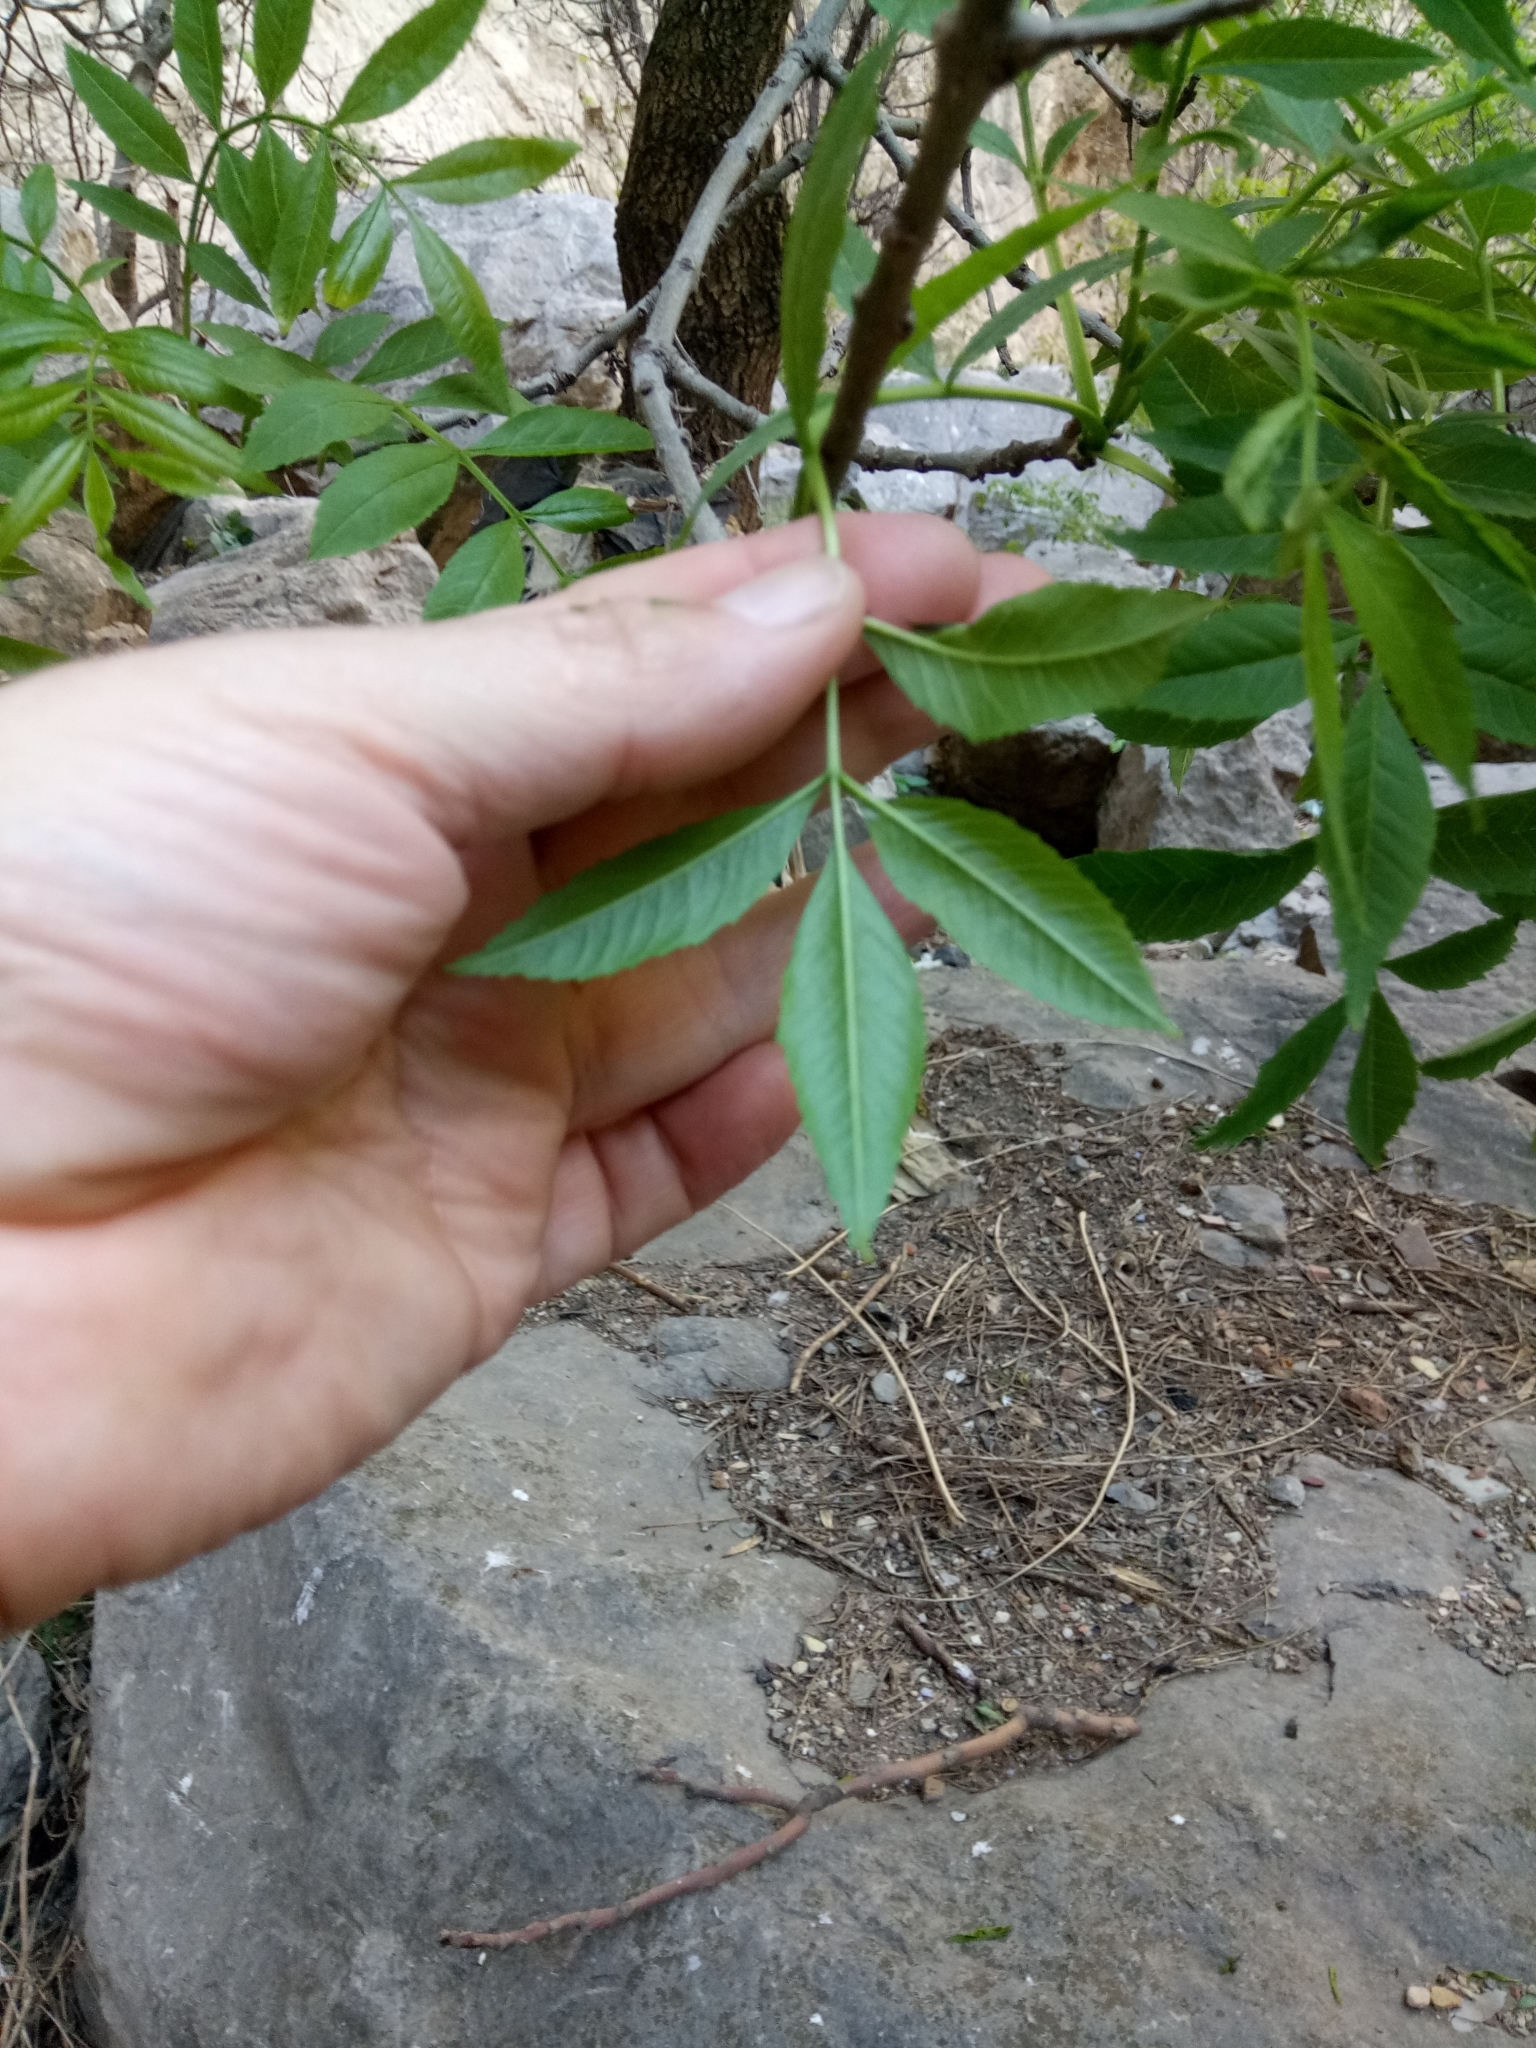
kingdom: Plantae
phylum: Tracheophyta
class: Magnoliopsida
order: Lamiales
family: Oleaceae
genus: Fraxinus
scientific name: Fraxinus angustifolia
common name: Narrow-leafed ash
